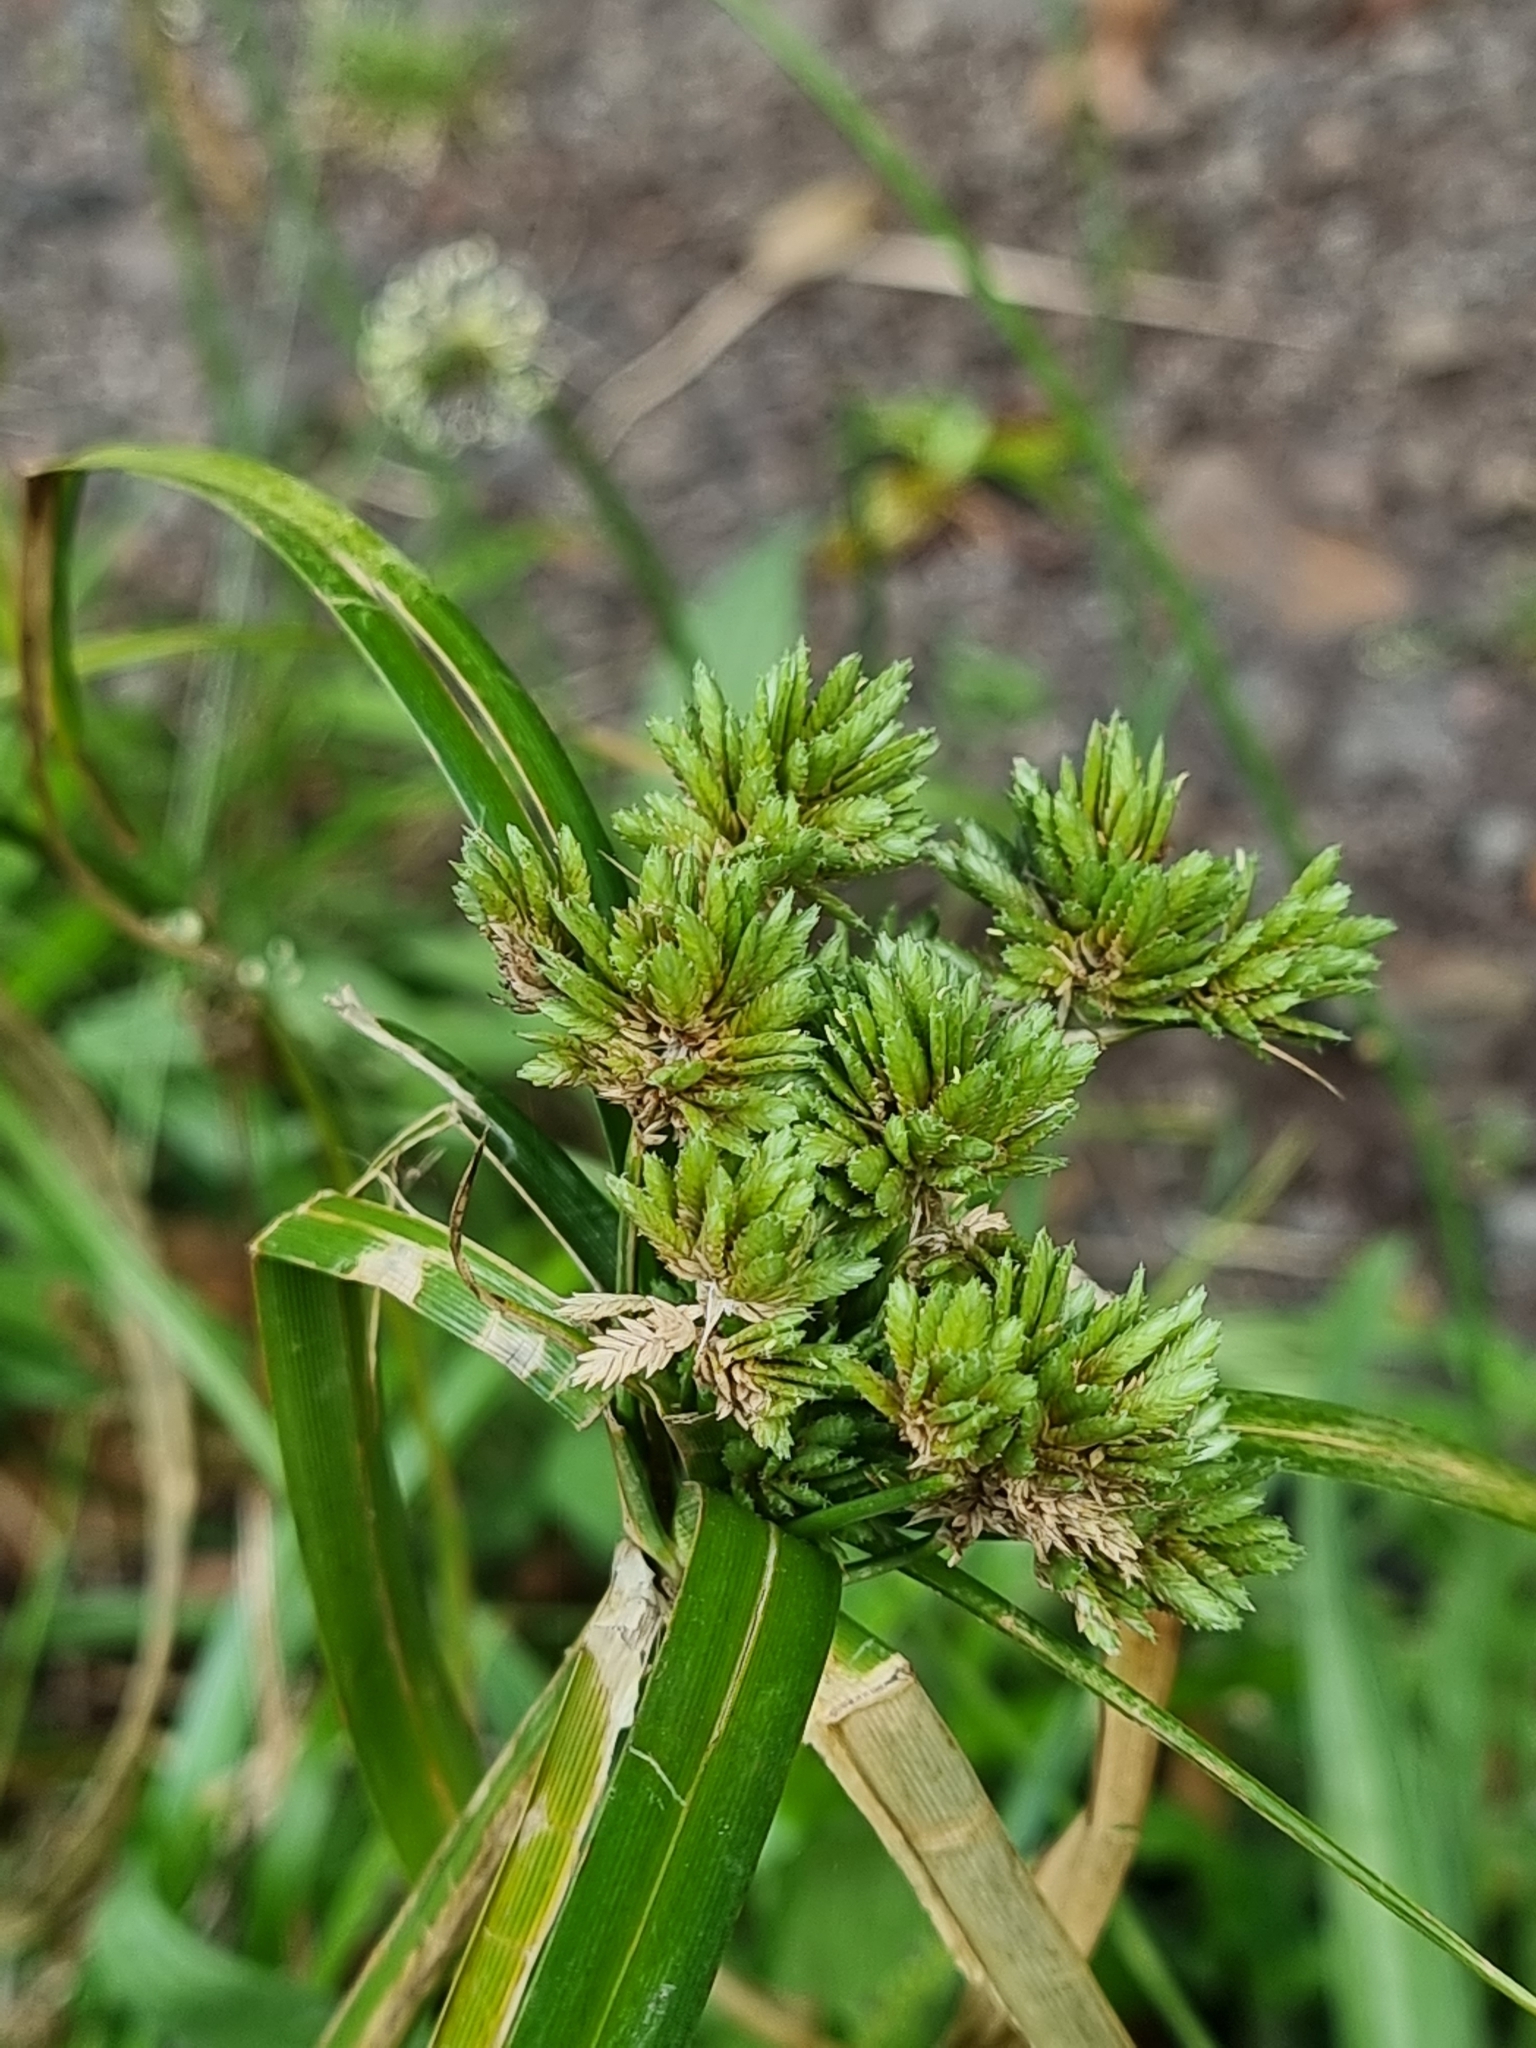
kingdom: Plantae
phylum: Tracheophyta
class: Liliopsida
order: Poales
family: Cyperaceae
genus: Cyperus
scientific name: Cyperus eragrostis
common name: Tall flatsedge
